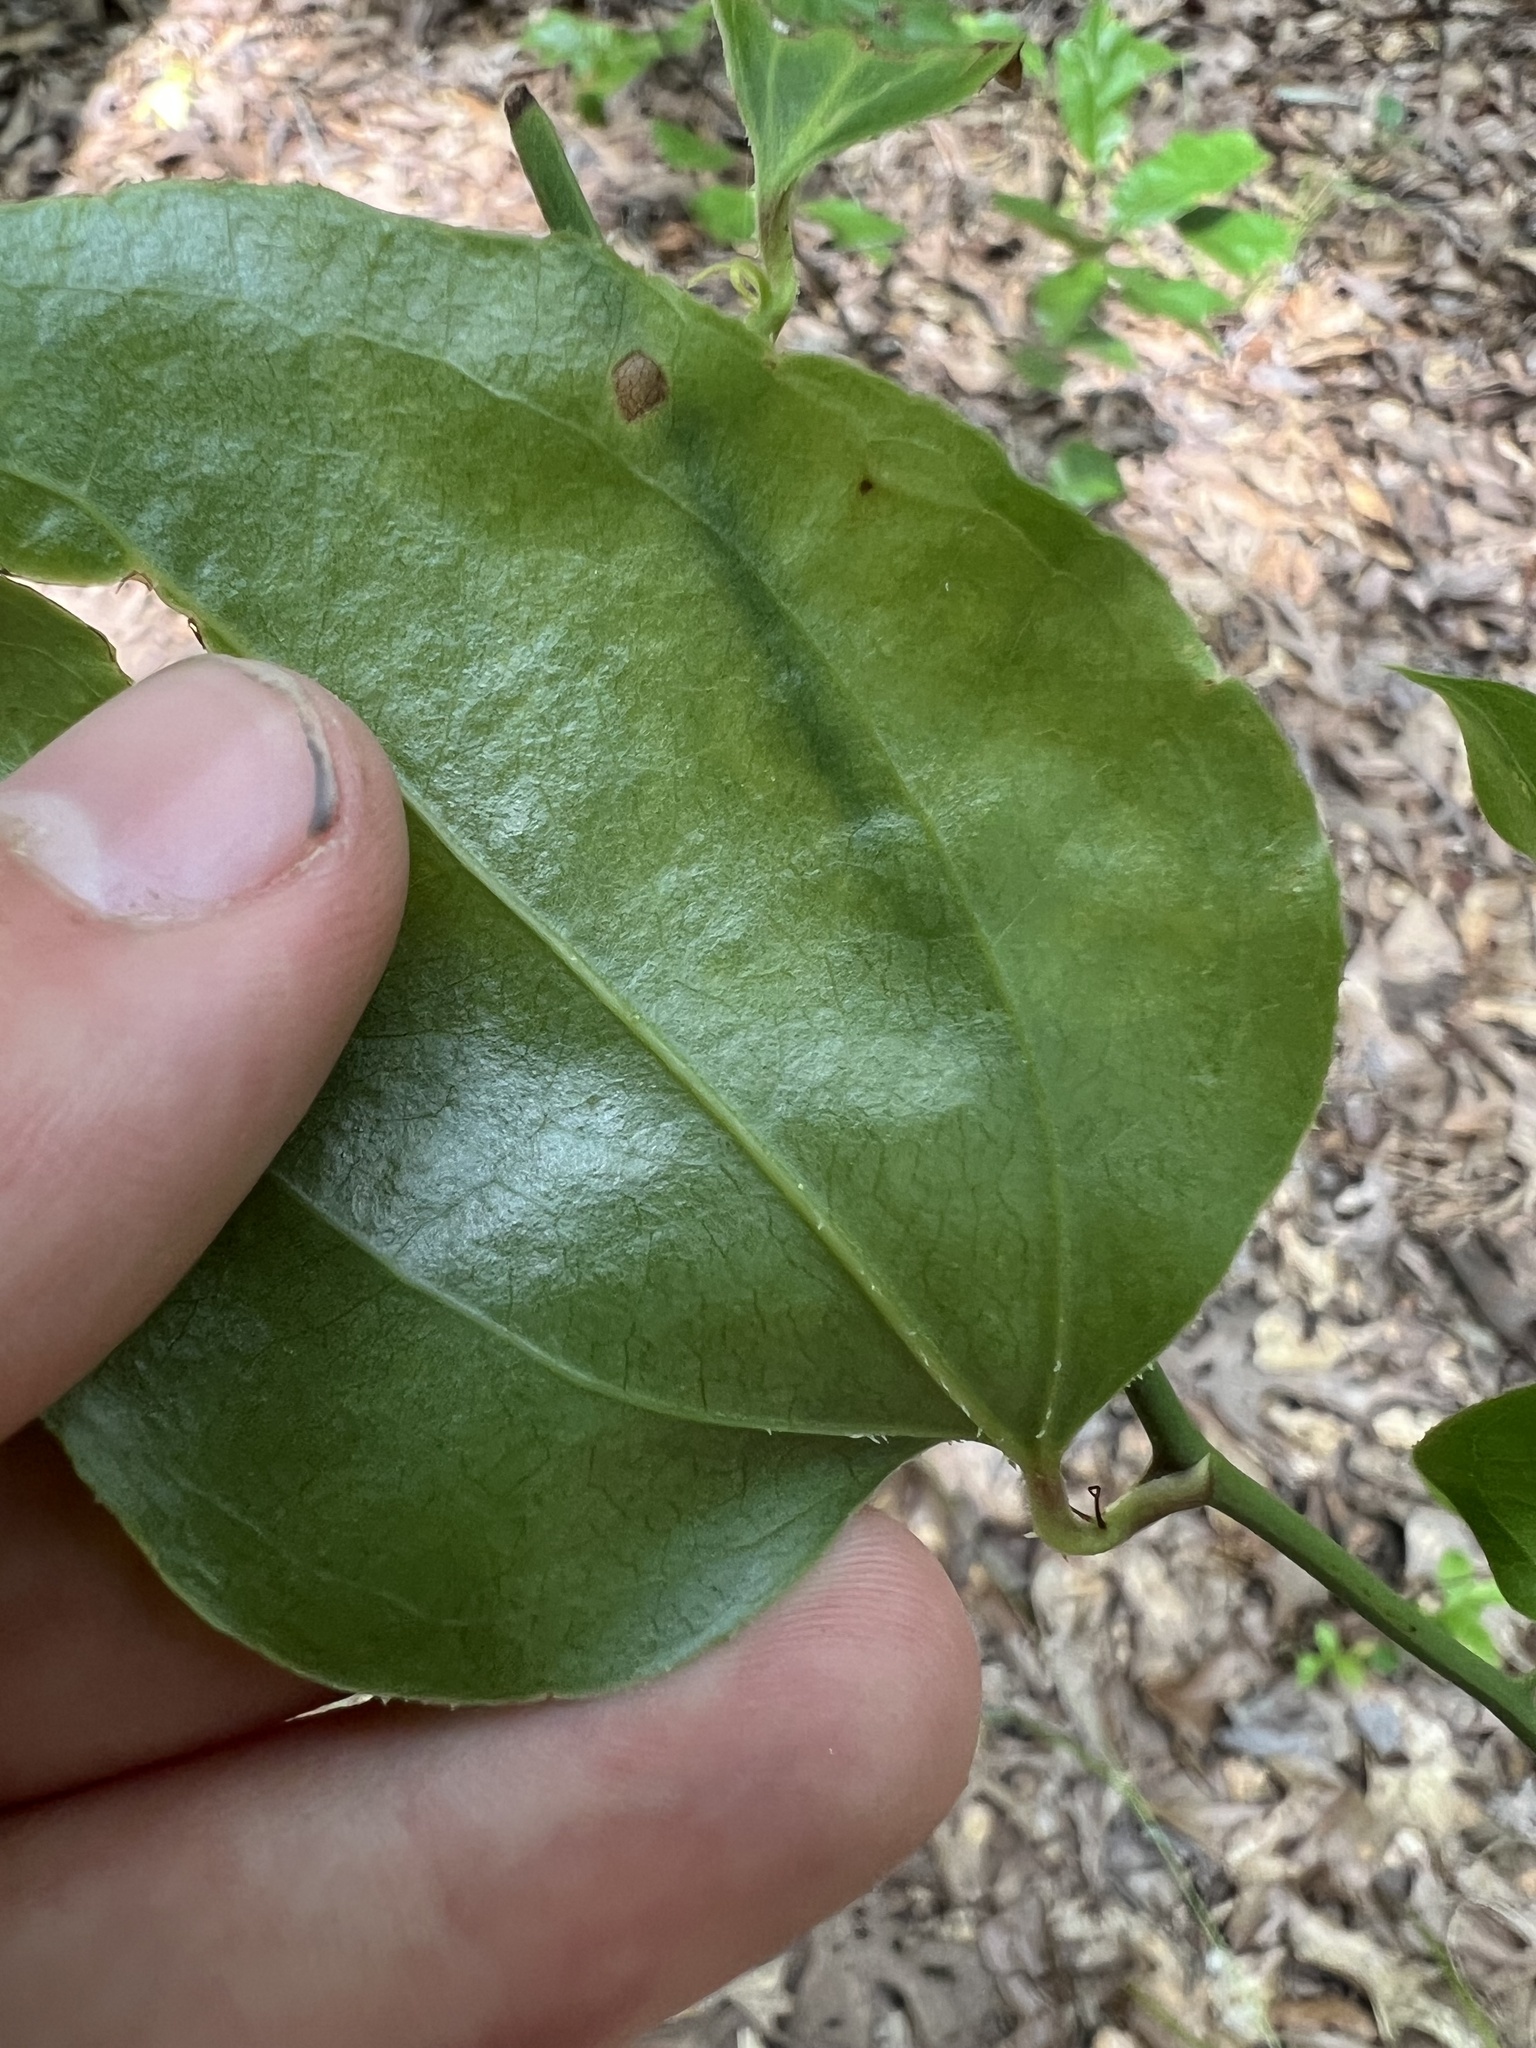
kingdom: Plantae
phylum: Tracheophyta
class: Liliopsida
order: Liliales
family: Smilacaceae
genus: Smilax
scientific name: Smilax rotundifolia
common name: Bullbriar
